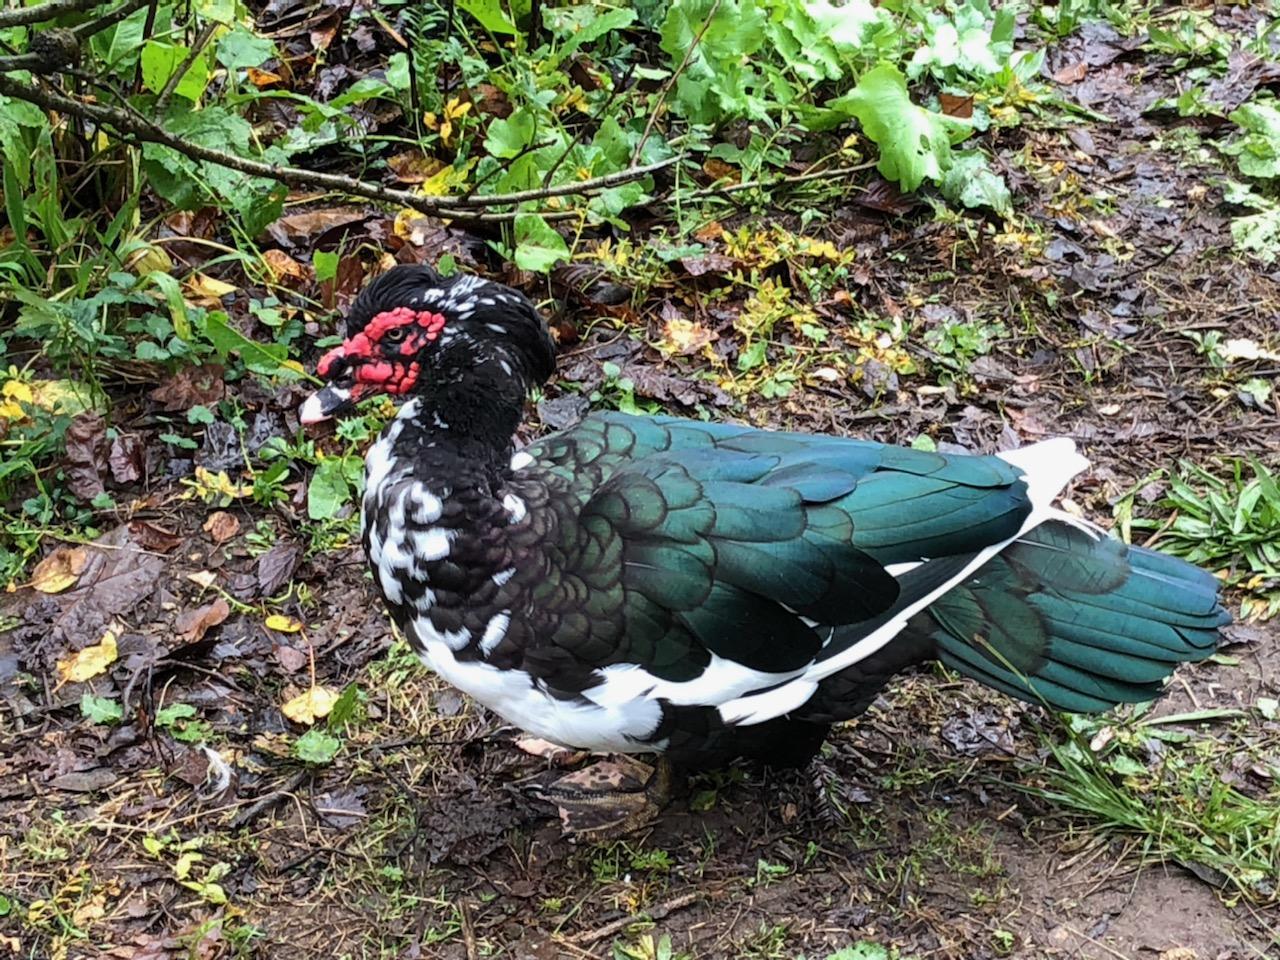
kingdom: Animalia
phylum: Chordata
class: Aves
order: Anseriformes
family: Anatidae
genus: Cairina
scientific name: Cairina moschata
